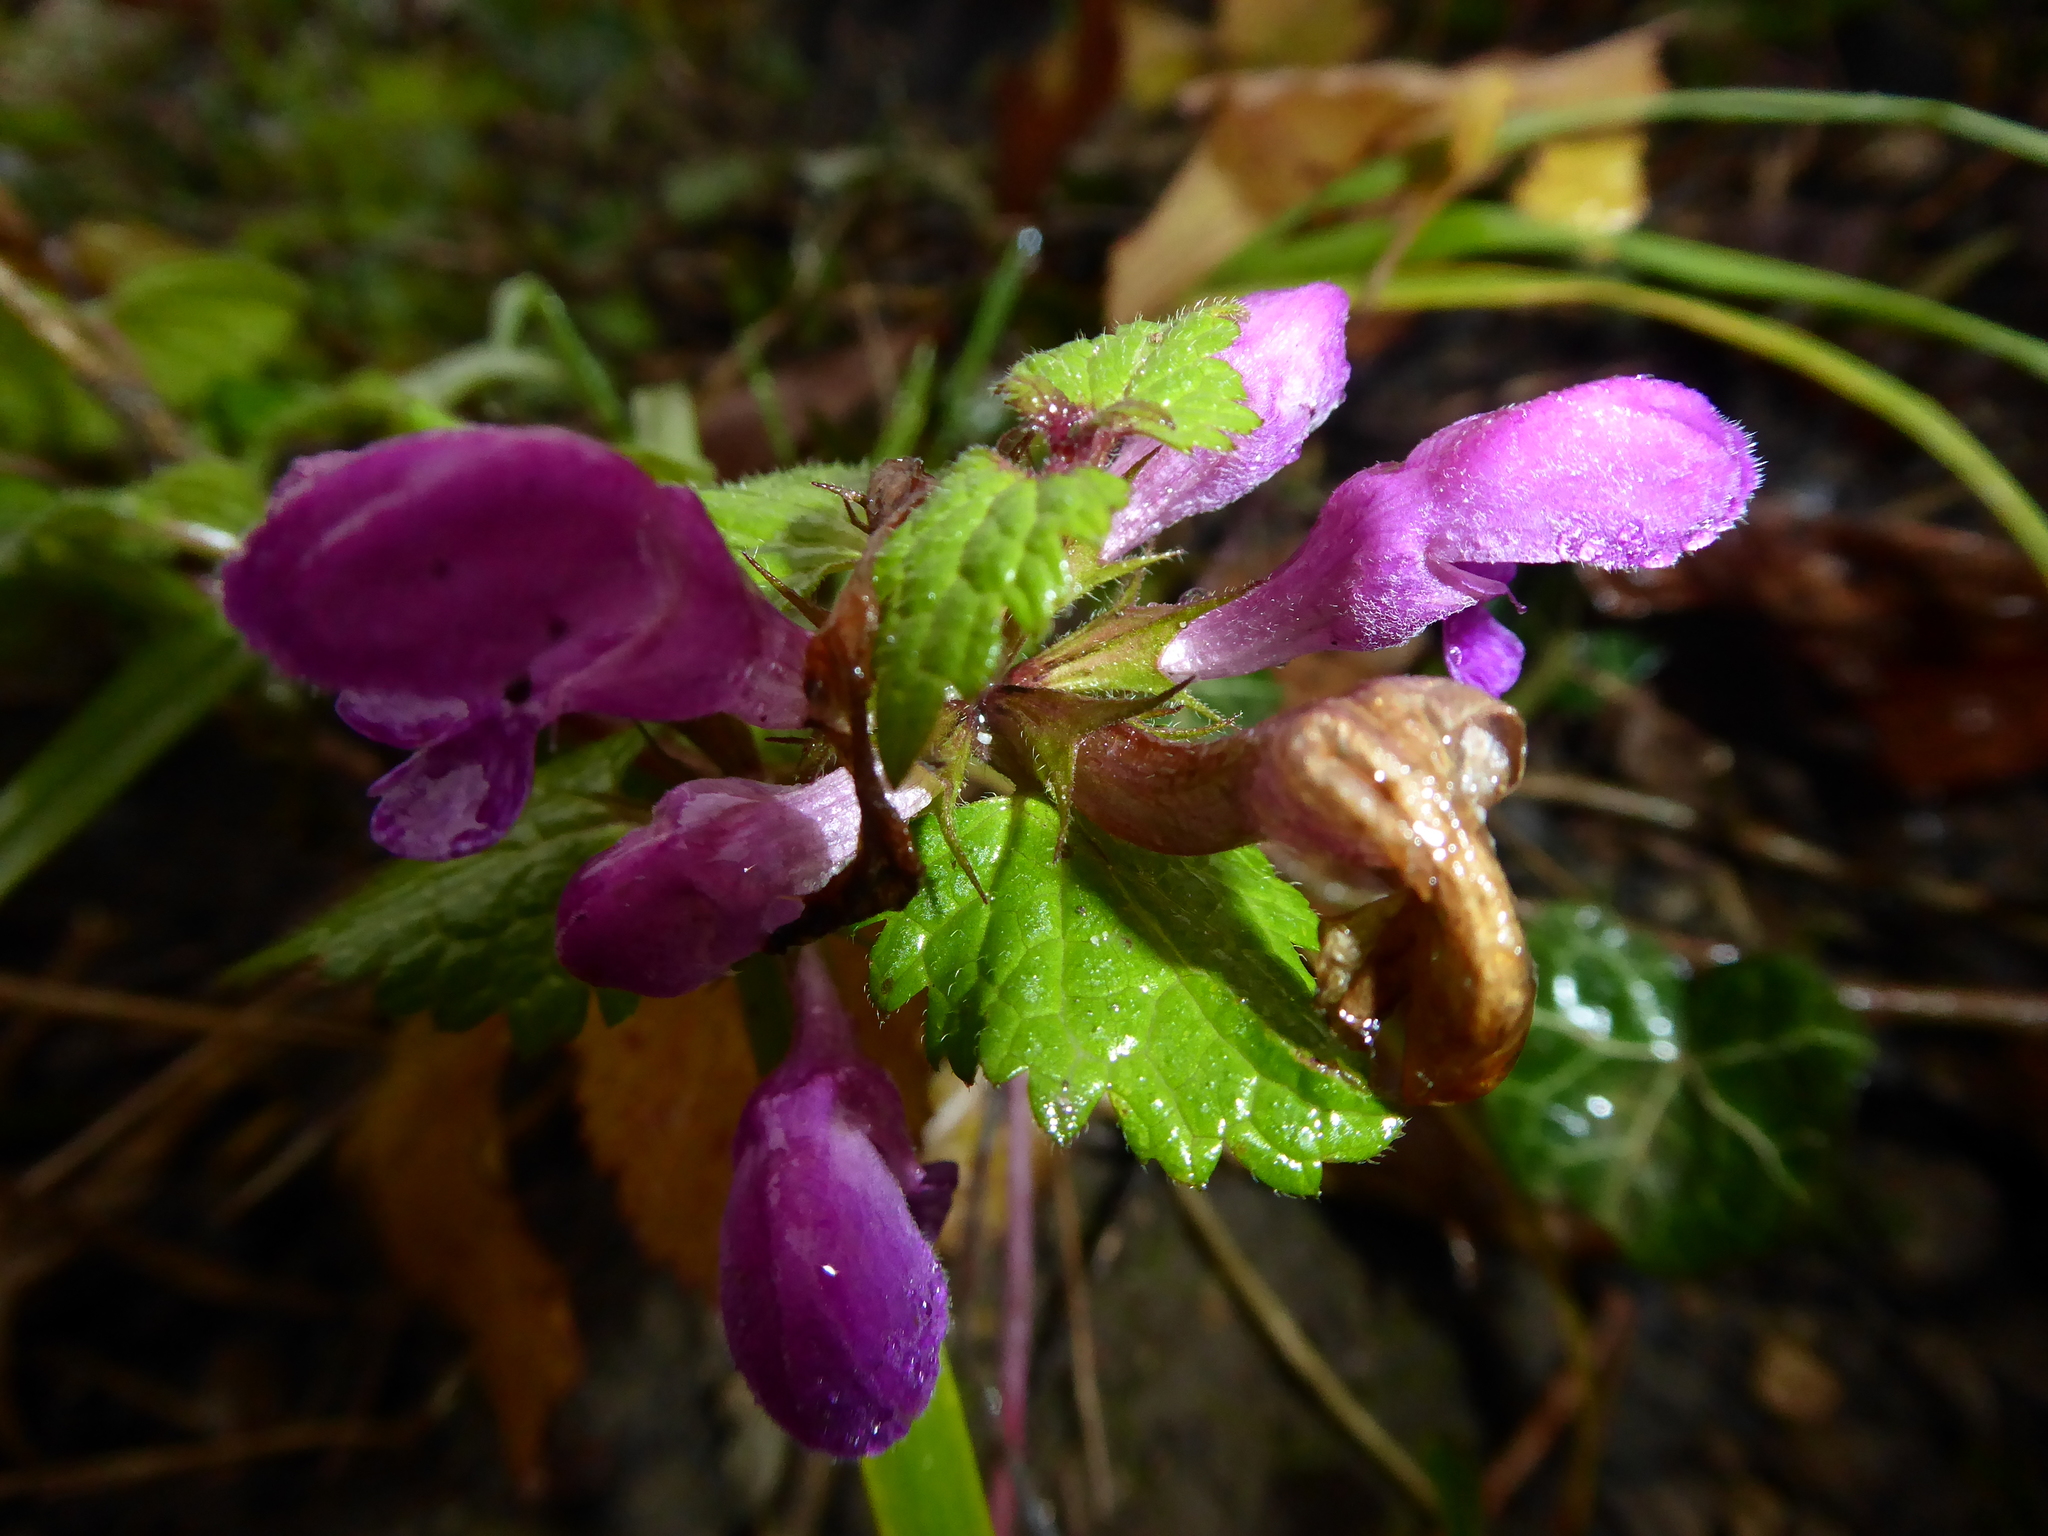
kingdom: Plantae
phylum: Tracheophyta
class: Magnoliopsida
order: Lamiales
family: Lamiaceae
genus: Lamium
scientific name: Lamium maculatum
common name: Spotted dead-nettle
